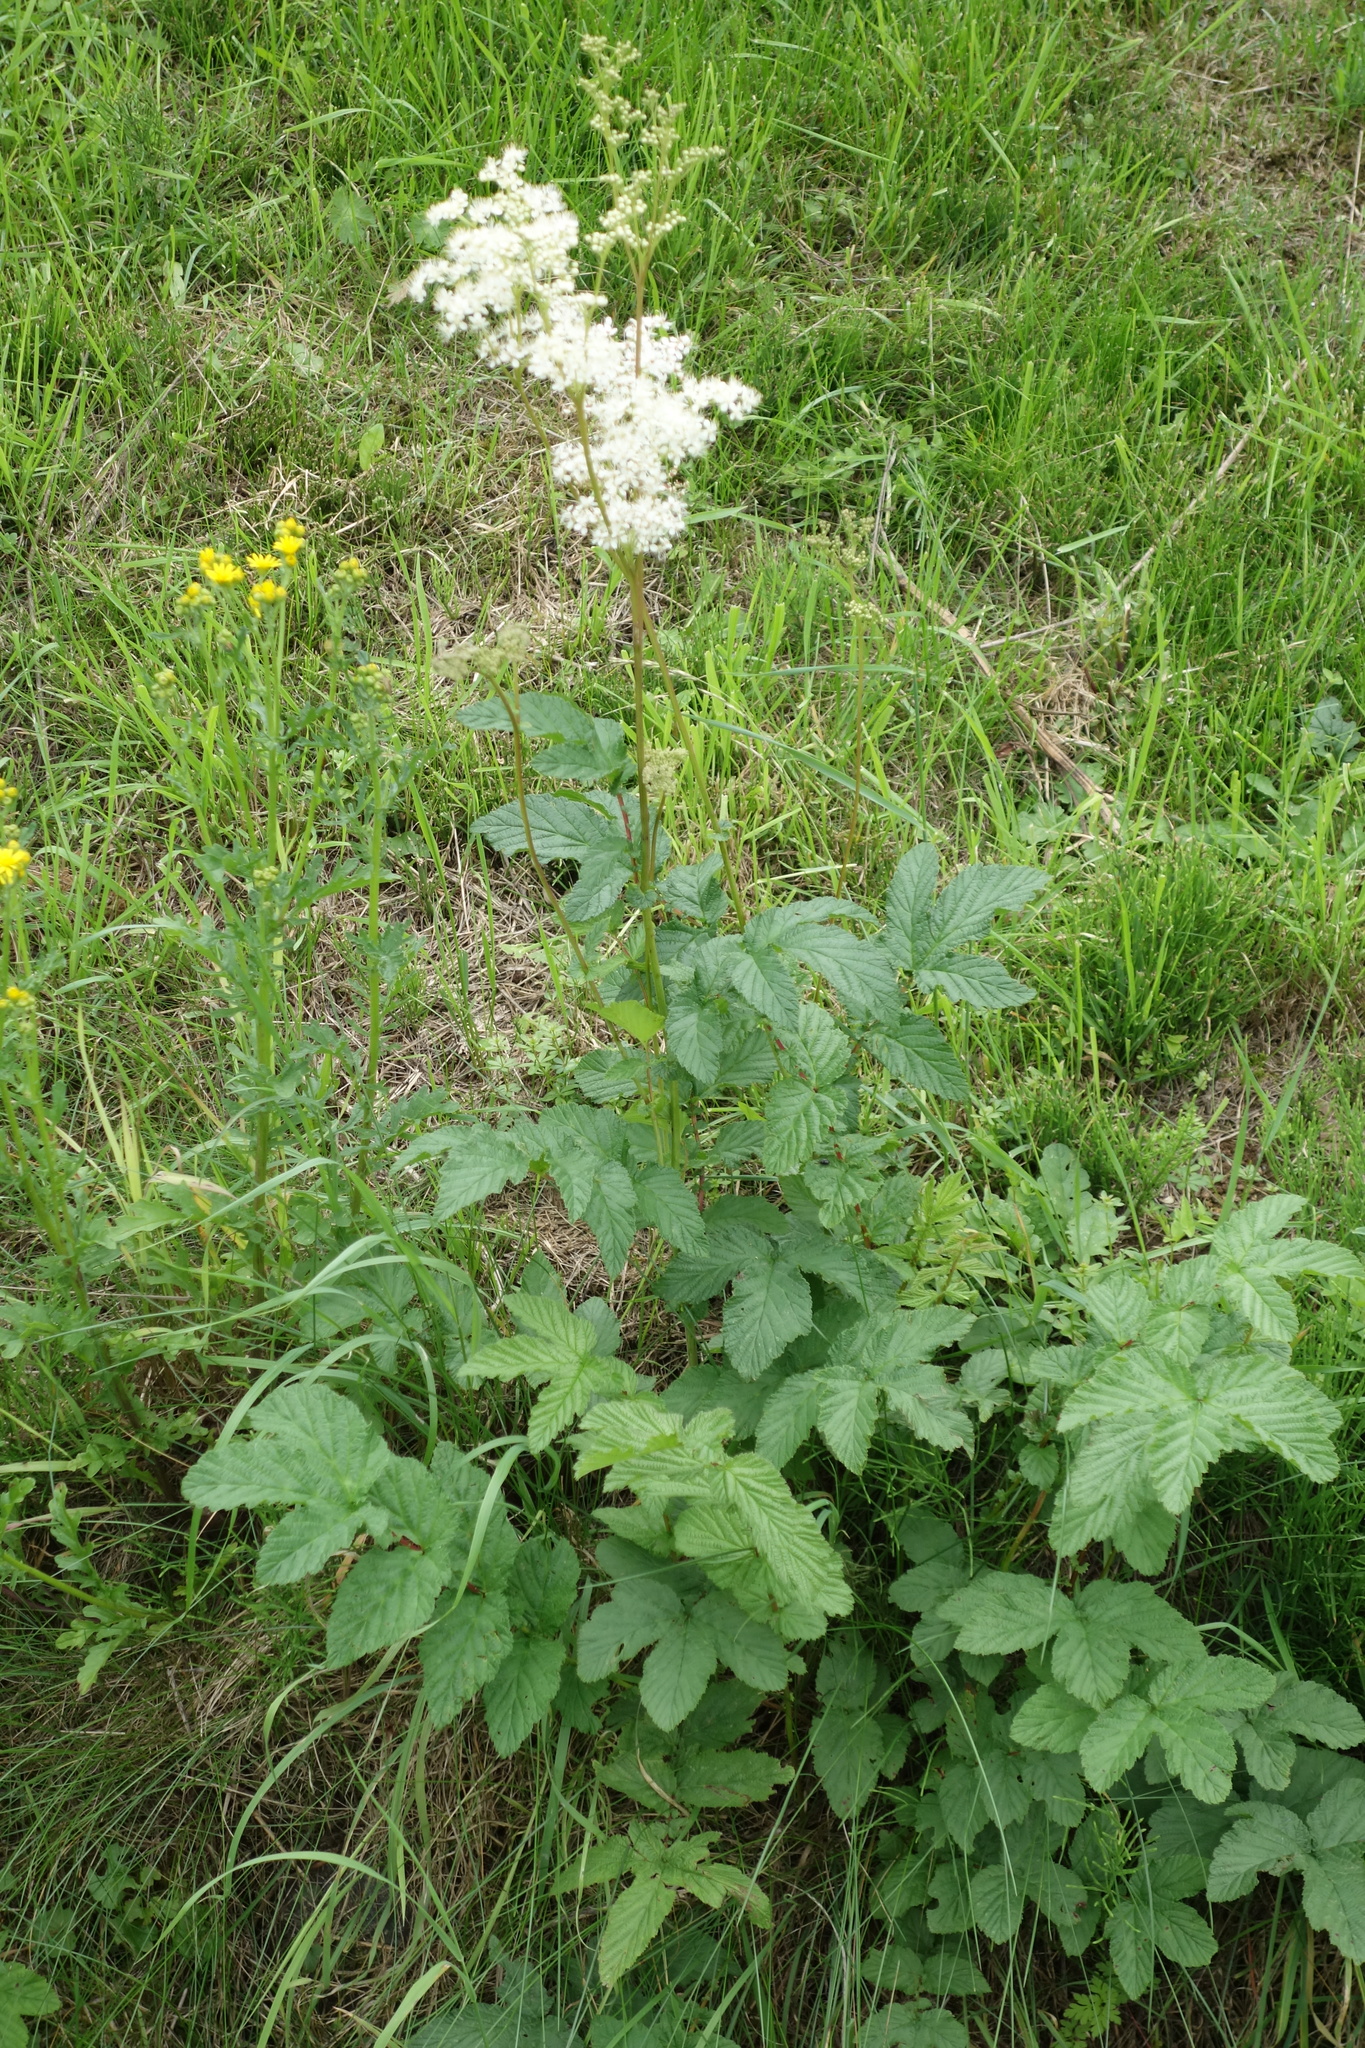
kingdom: Plantae
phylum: Tracheophyta
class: Magnoliopsida
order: Rosales
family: Rosaceae
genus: Filipendula
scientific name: Filipendula ulmaria
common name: Meadowsweet
